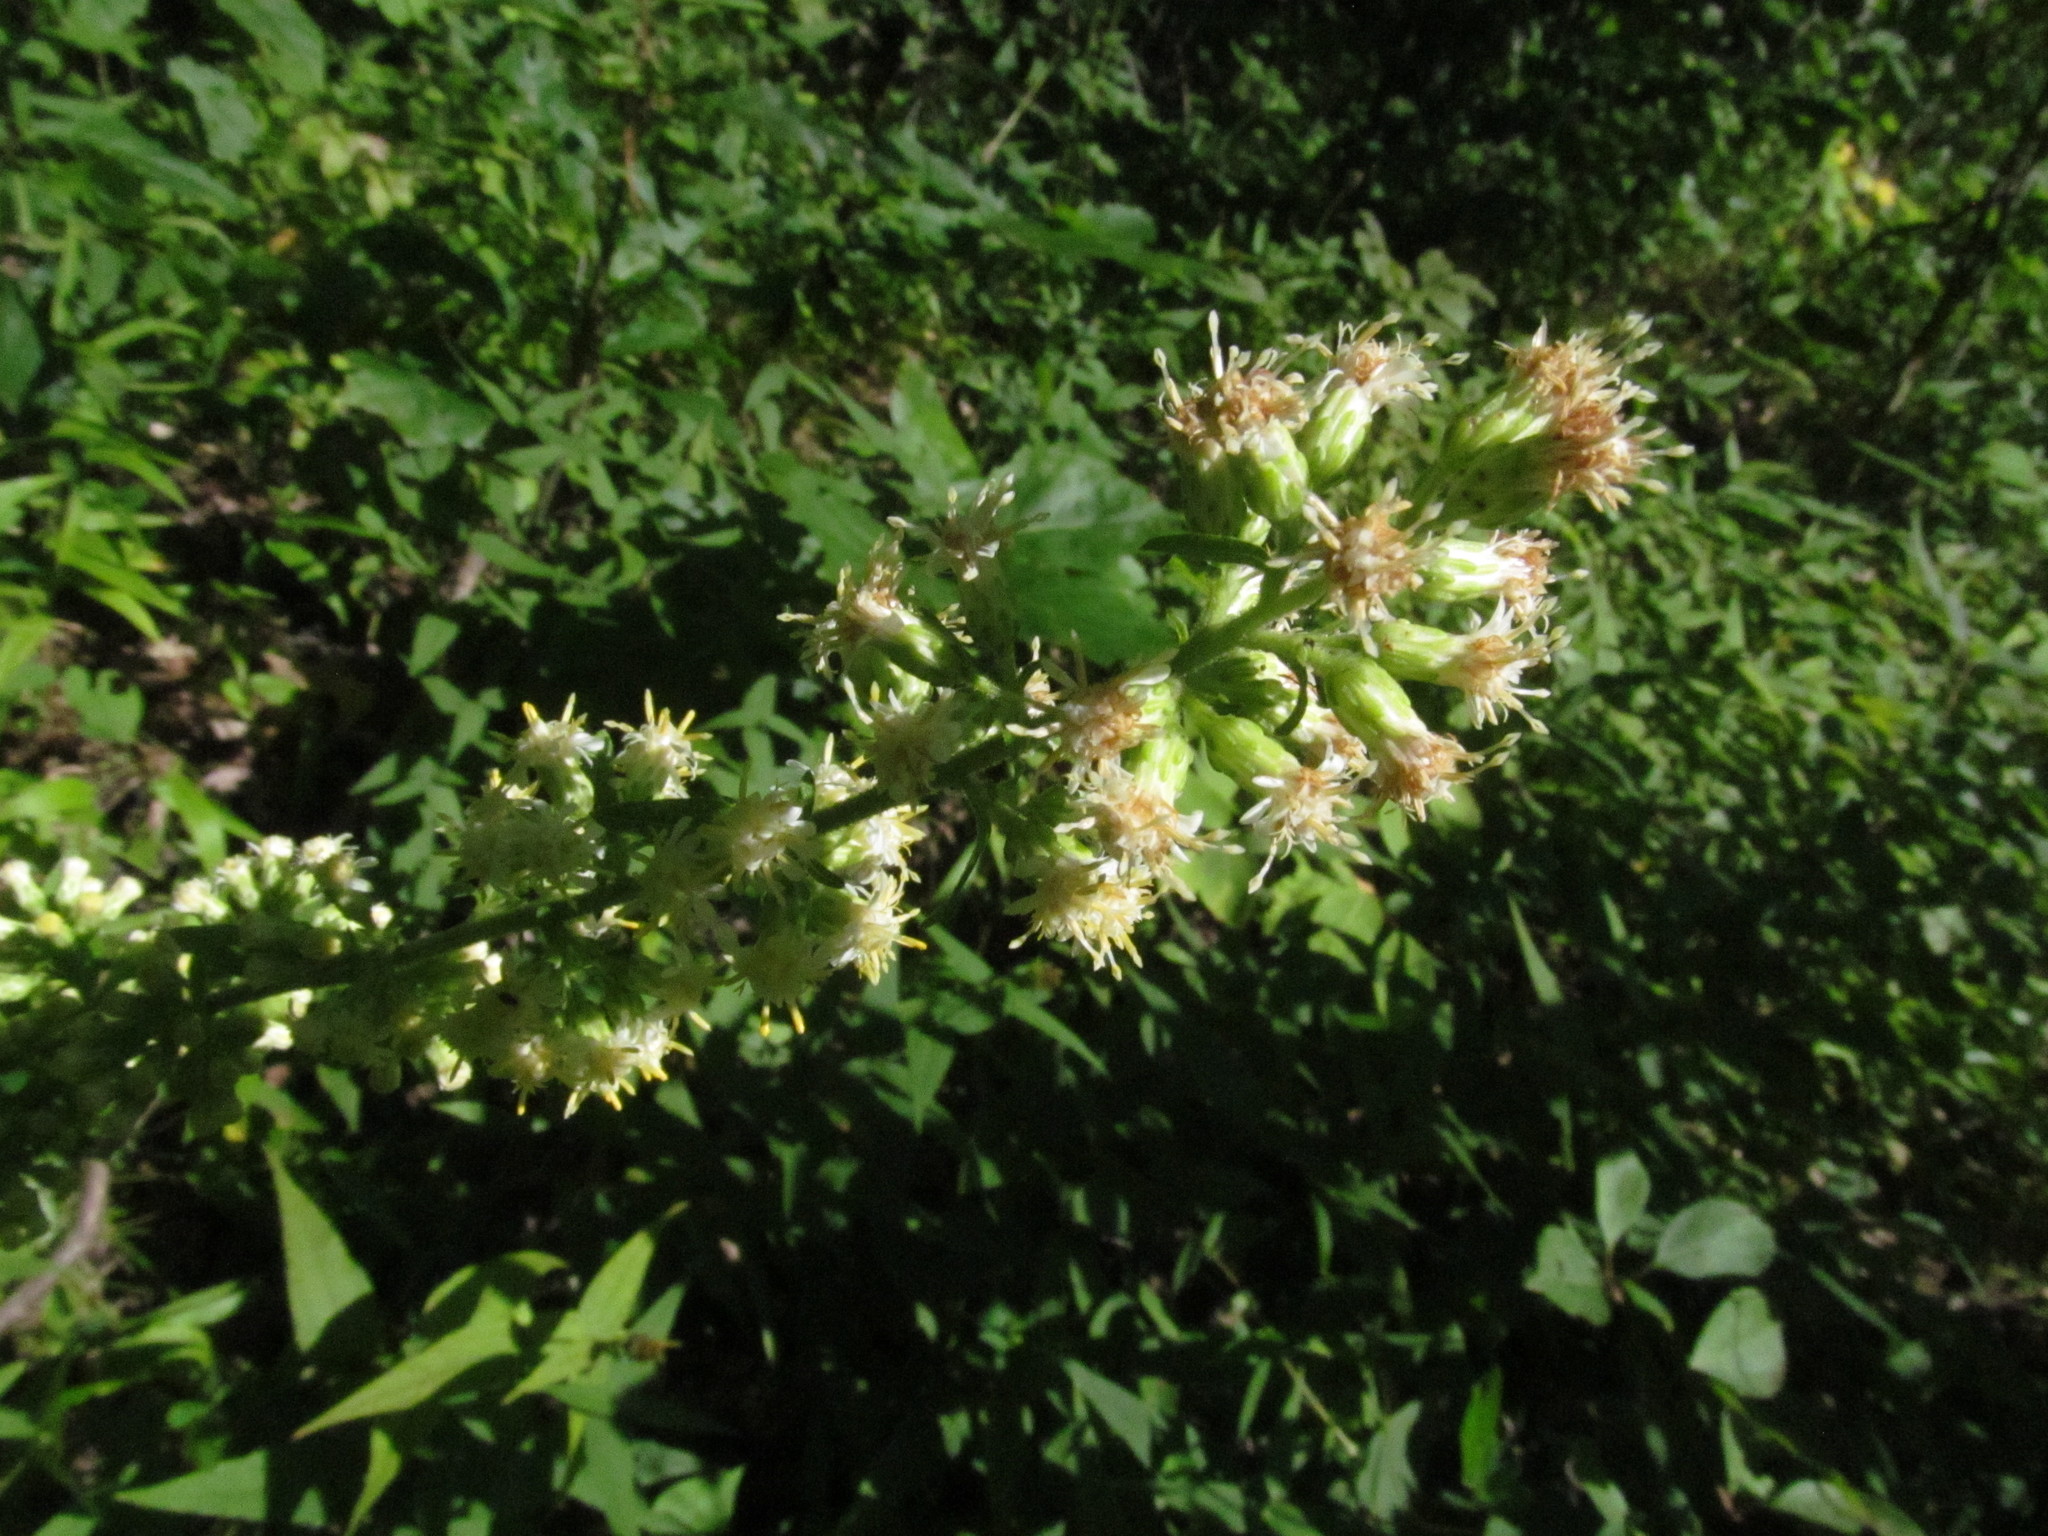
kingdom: Plantae
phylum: Tracheophyta
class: Magnoliopsida
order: Asterales
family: Asteraceae
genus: Solidago
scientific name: Solidago bicolor
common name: Silverrod
